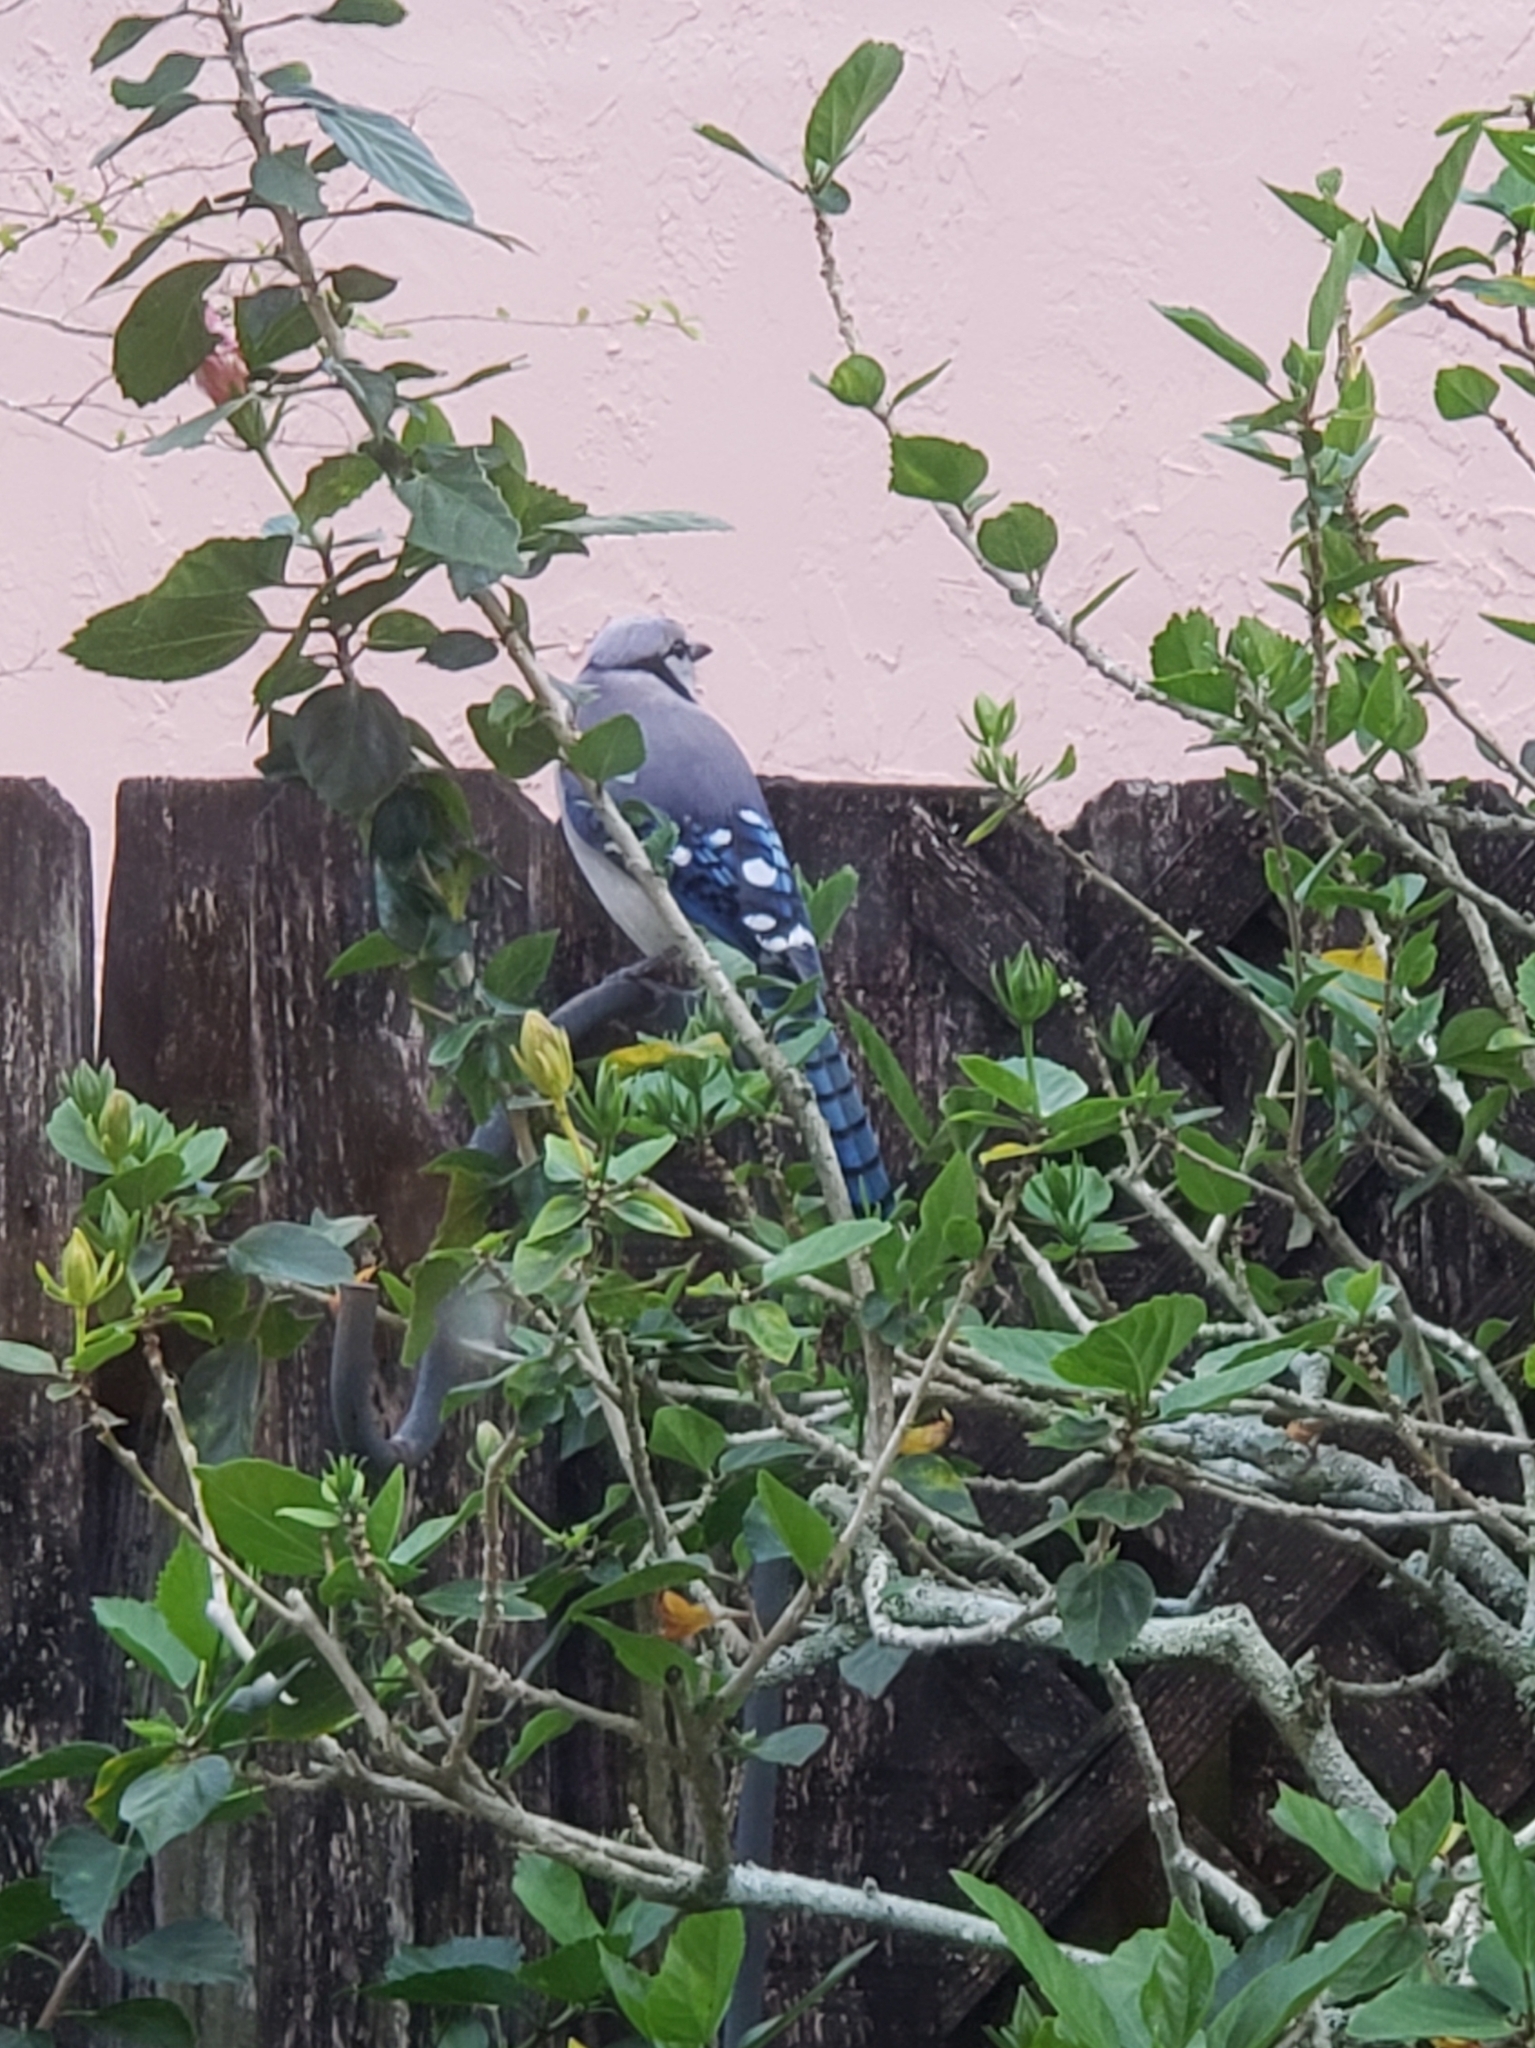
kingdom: Animalia
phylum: Chordata
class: Aves
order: Passeriformes
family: Corvidae
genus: Cyanocitta
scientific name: Cyanocitta cristata
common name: Blue jay
